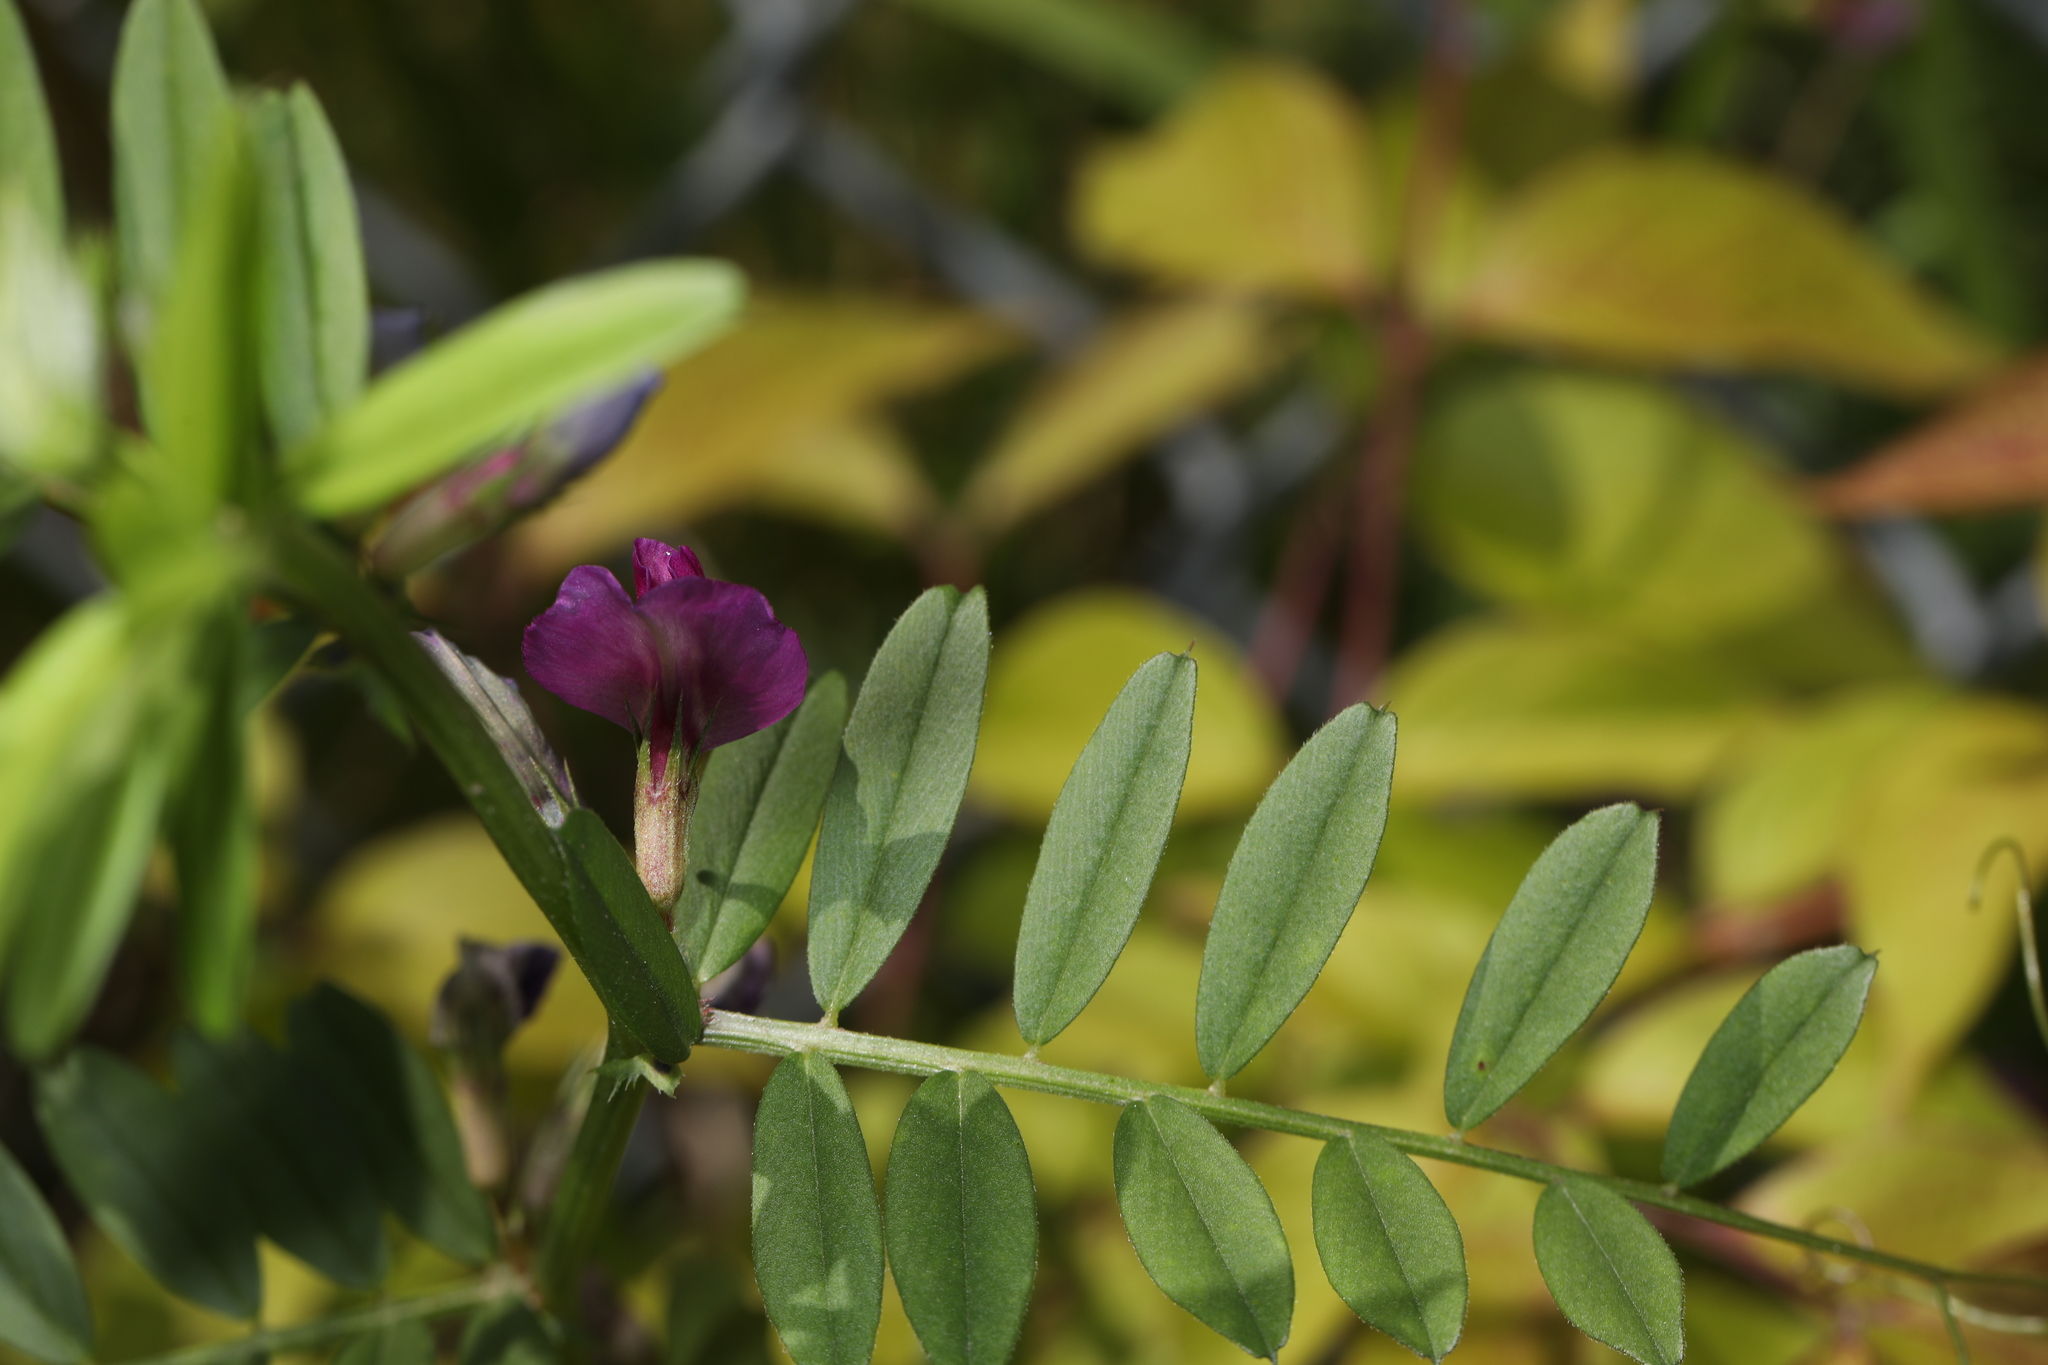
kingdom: Plantae
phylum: Tracheophyta
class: Magnoliopsida
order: Fabales
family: Fabaceae
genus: Vicia
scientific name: Vicia sativa
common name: Garden vetch
